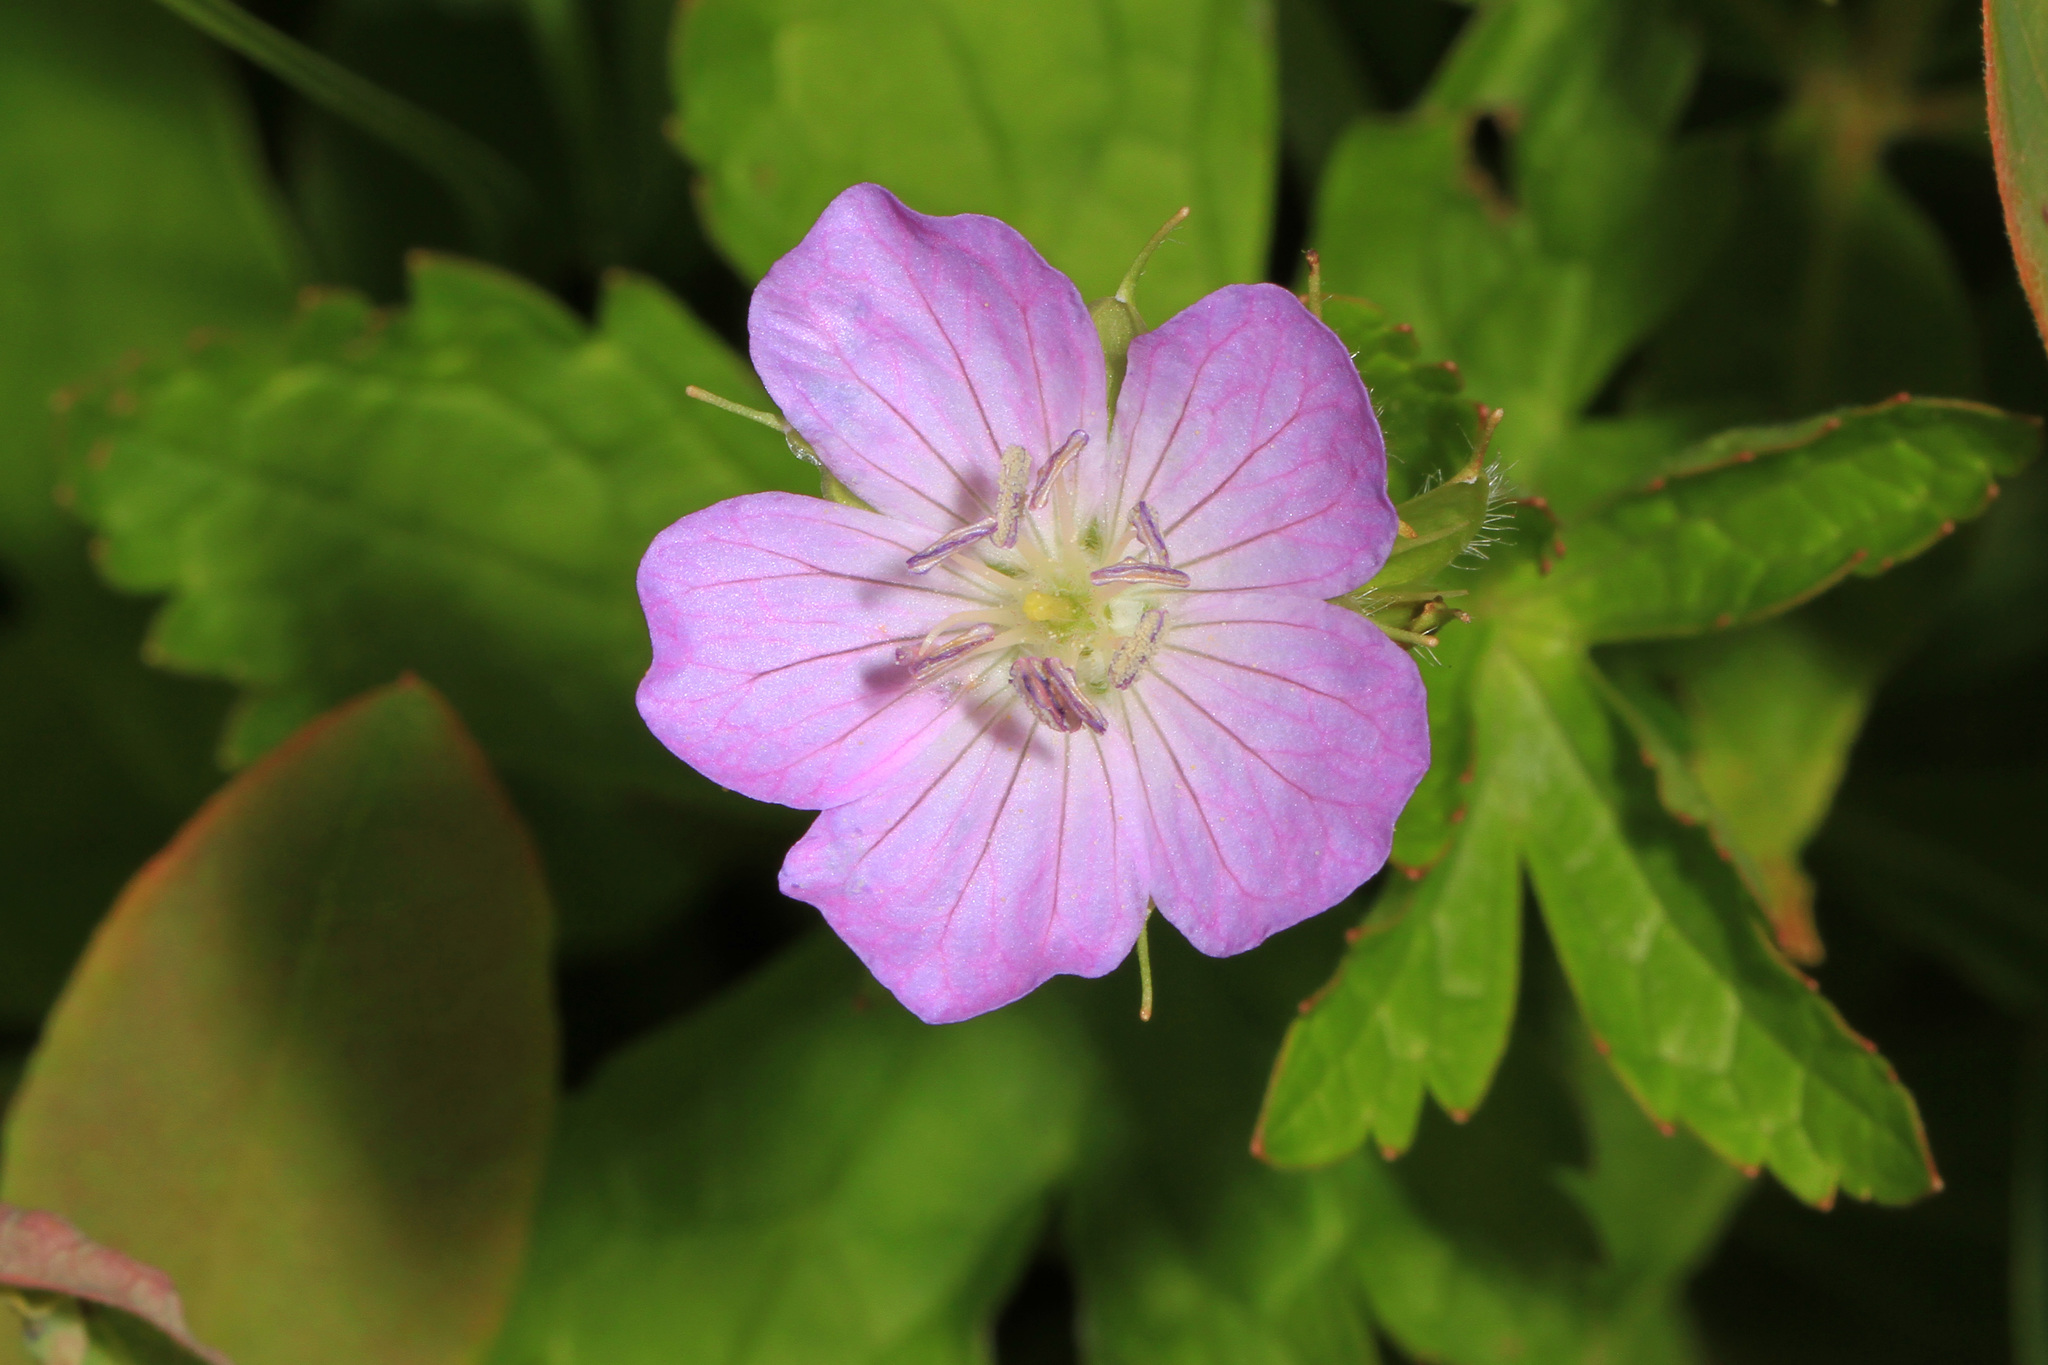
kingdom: Plantae
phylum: Tracheophyta
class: Magnoliopsida
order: Geraniales
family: Geraniaceae
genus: Geranium
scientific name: Geranium maculatum
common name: Spotted geranium
